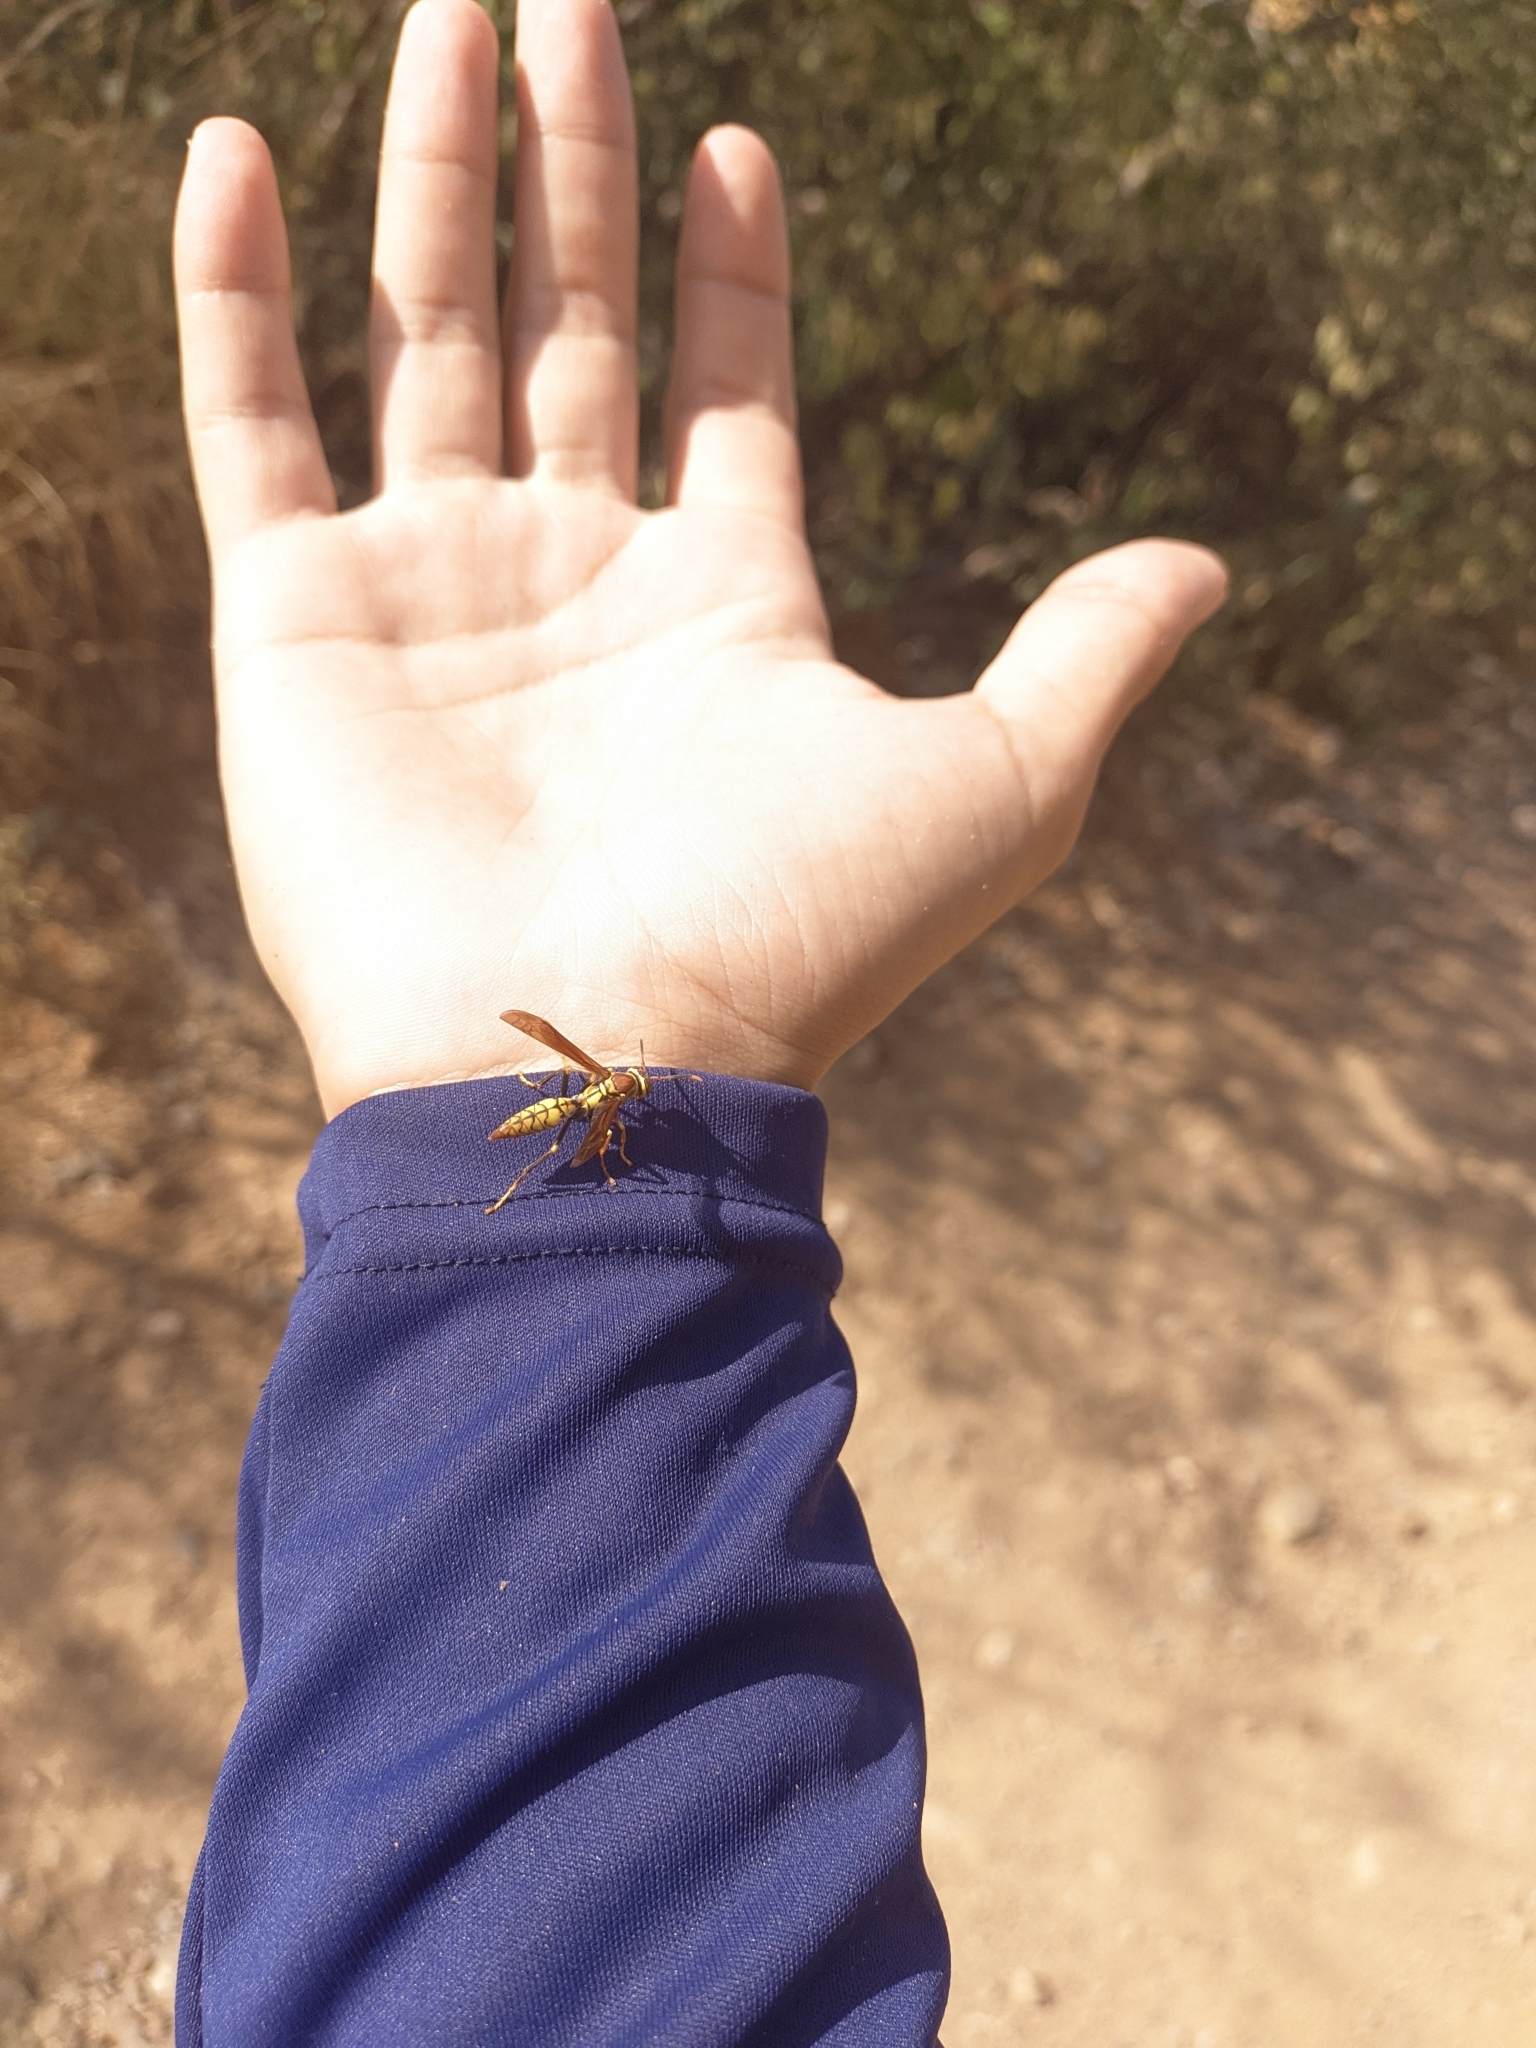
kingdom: Animalia
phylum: Arthropoda
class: Insecta
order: Hymenoptera
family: Eumenidae
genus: Polistes
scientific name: Polistes myersi
